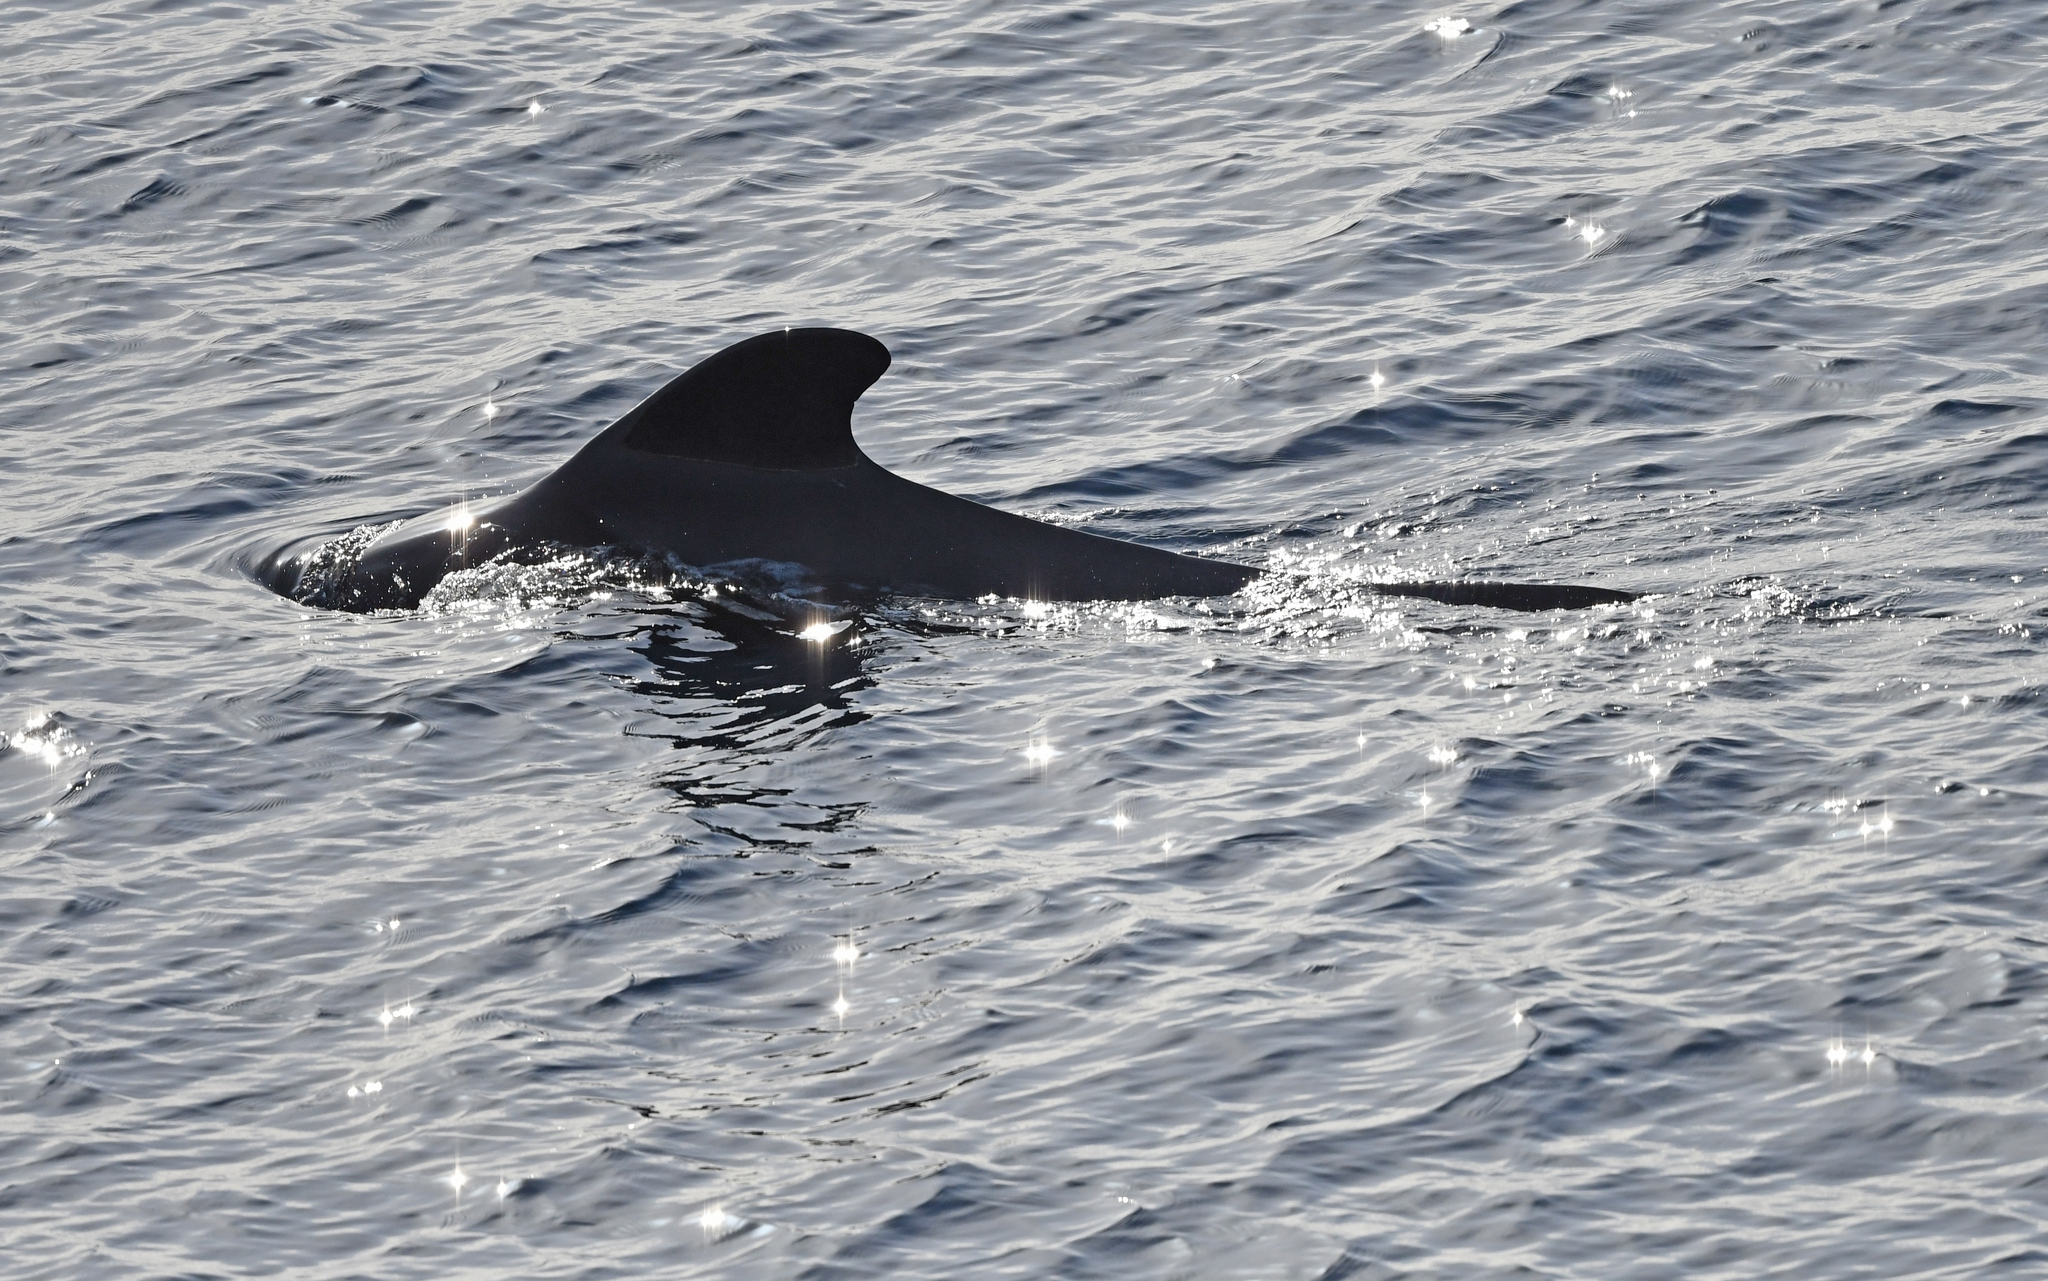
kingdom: Animalia
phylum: Chordata
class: Mammalia
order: Cetacea
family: Delphinidae
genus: Globicephala
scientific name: Globicephala macrorhynchus
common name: Short-finned pilot whale
